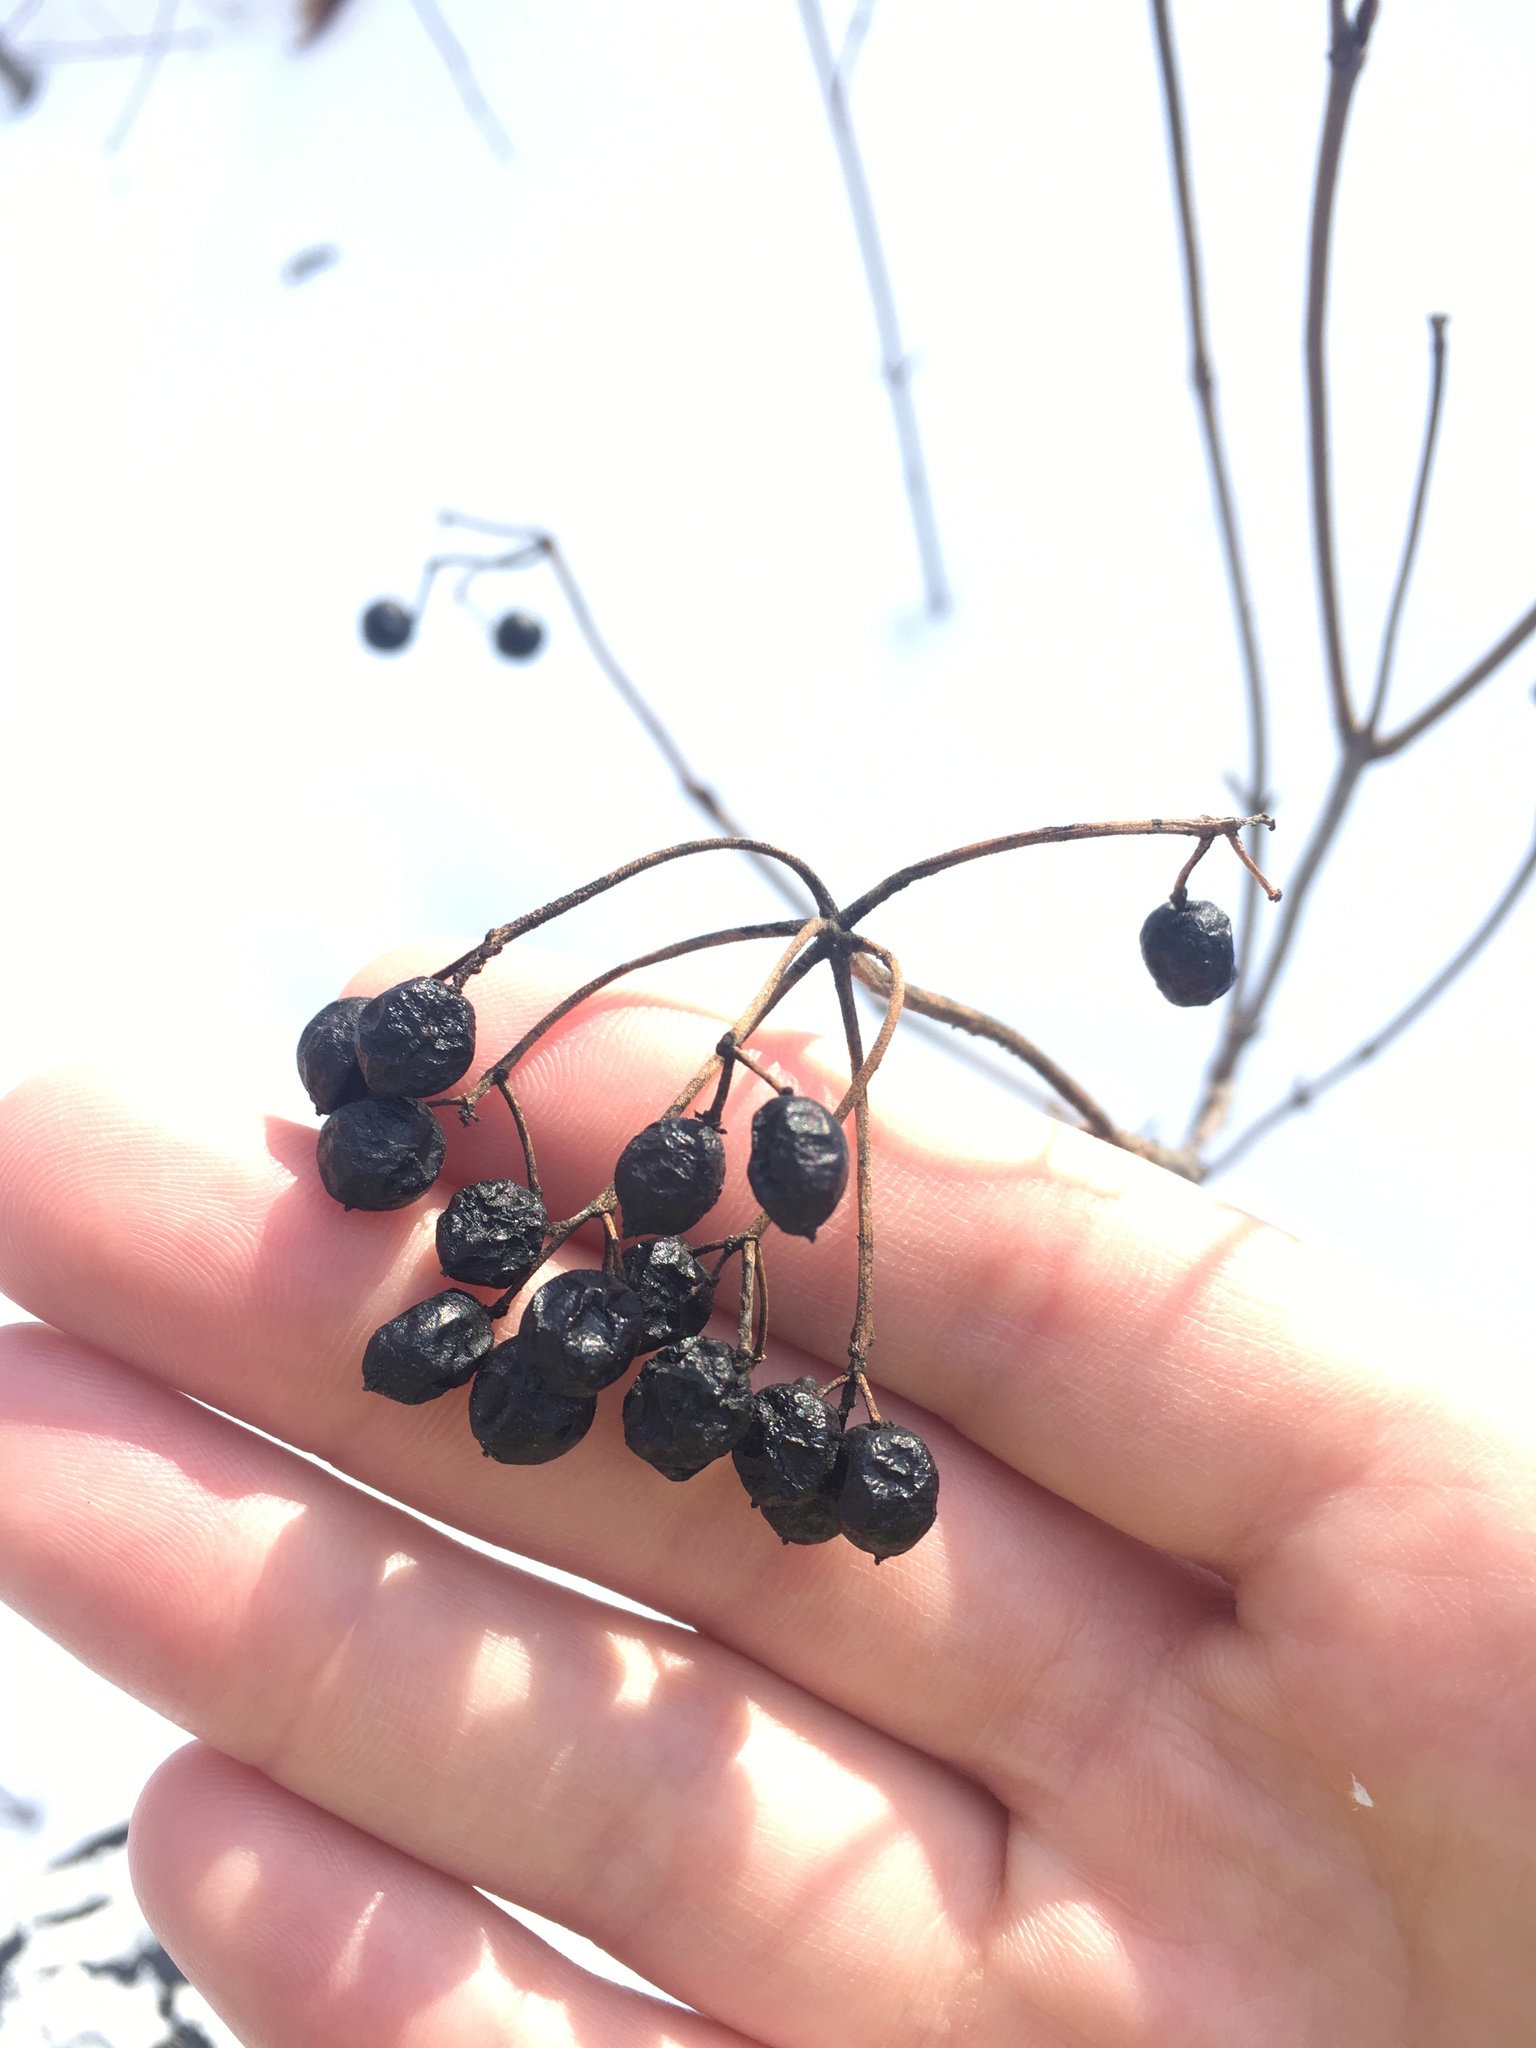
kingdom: Plantae
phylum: Tracheophyta
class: Magnoliopsida
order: Dipsacales
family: Viburnaceae
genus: Viburnum
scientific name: Viburnum acerifolium
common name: Dockmackie
